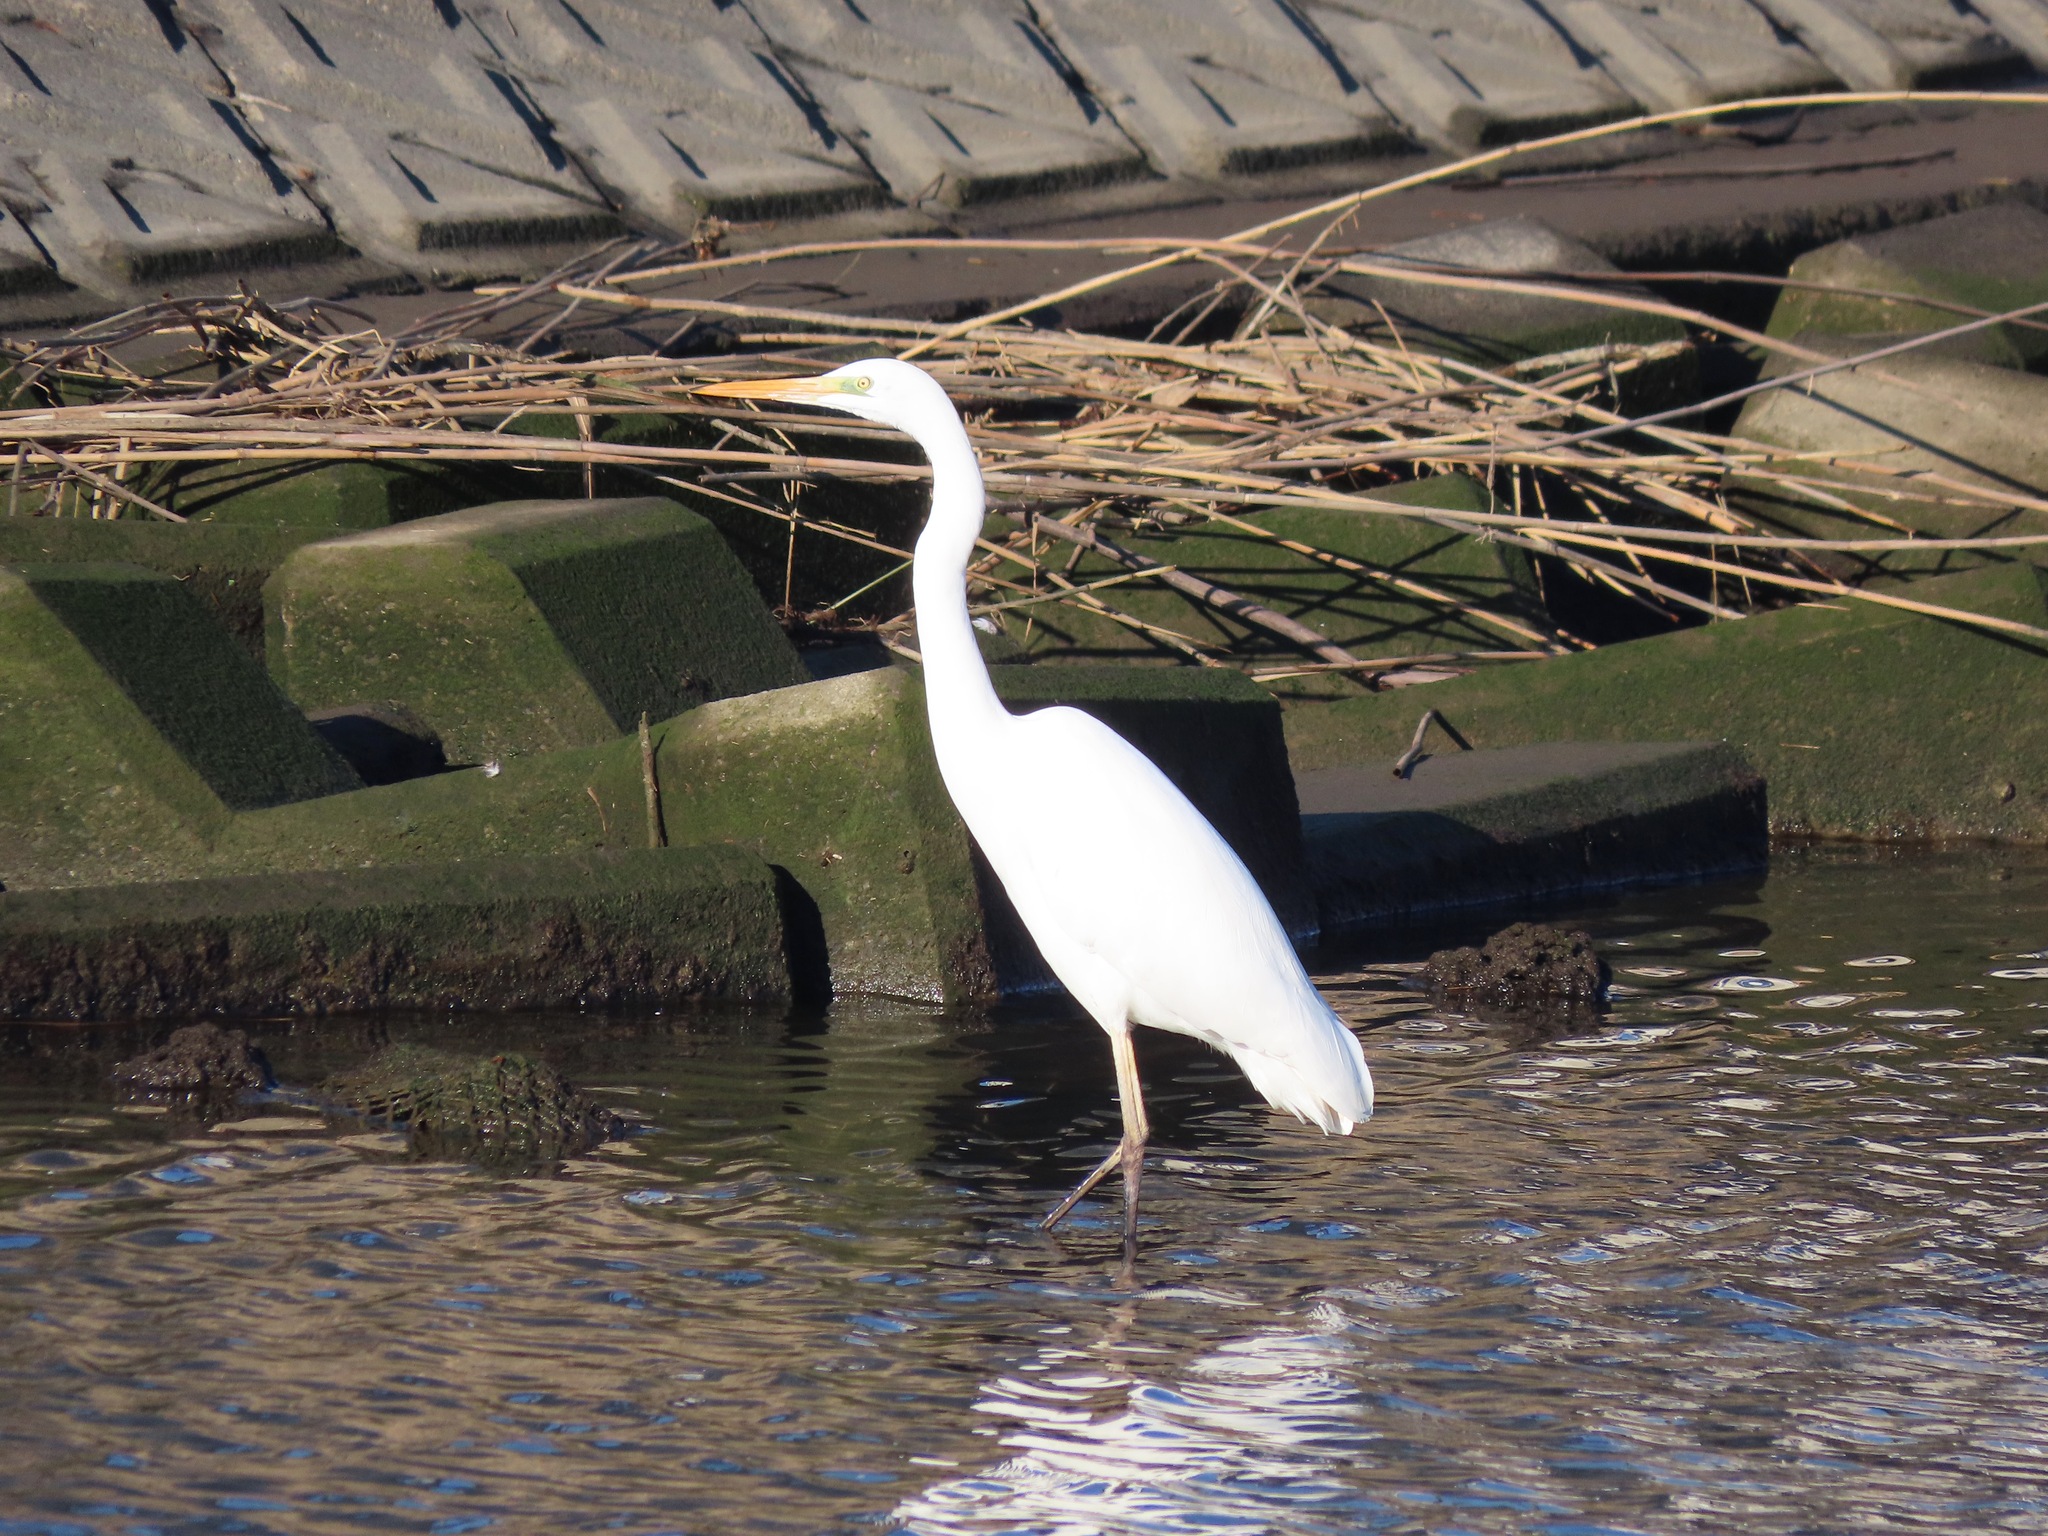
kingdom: Animalia
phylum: Chordata
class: Aves
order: Pelecaniformes
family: Ardeidae
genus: Ardea
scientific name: Ardea alba
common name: Great egret
